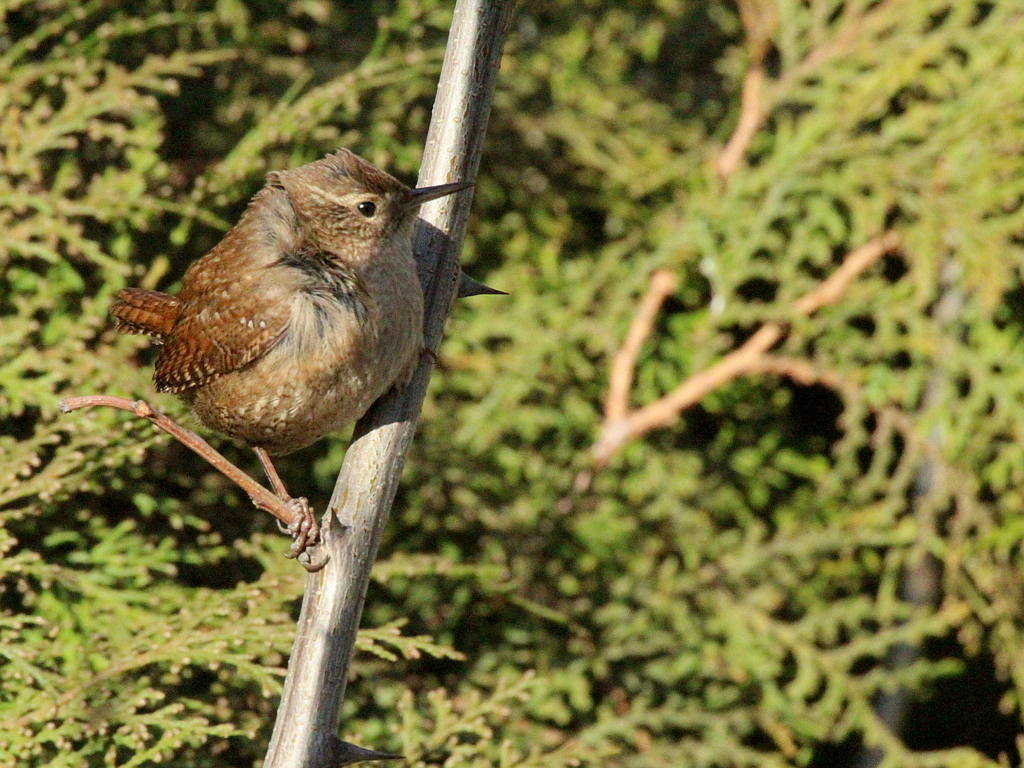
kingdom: Animalia
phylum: Chordata
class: Aves
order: Passeriformes
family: Troglodytidae
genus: Troglodytes
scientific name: Troglodytes troglodytes
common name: Eurasian wren
